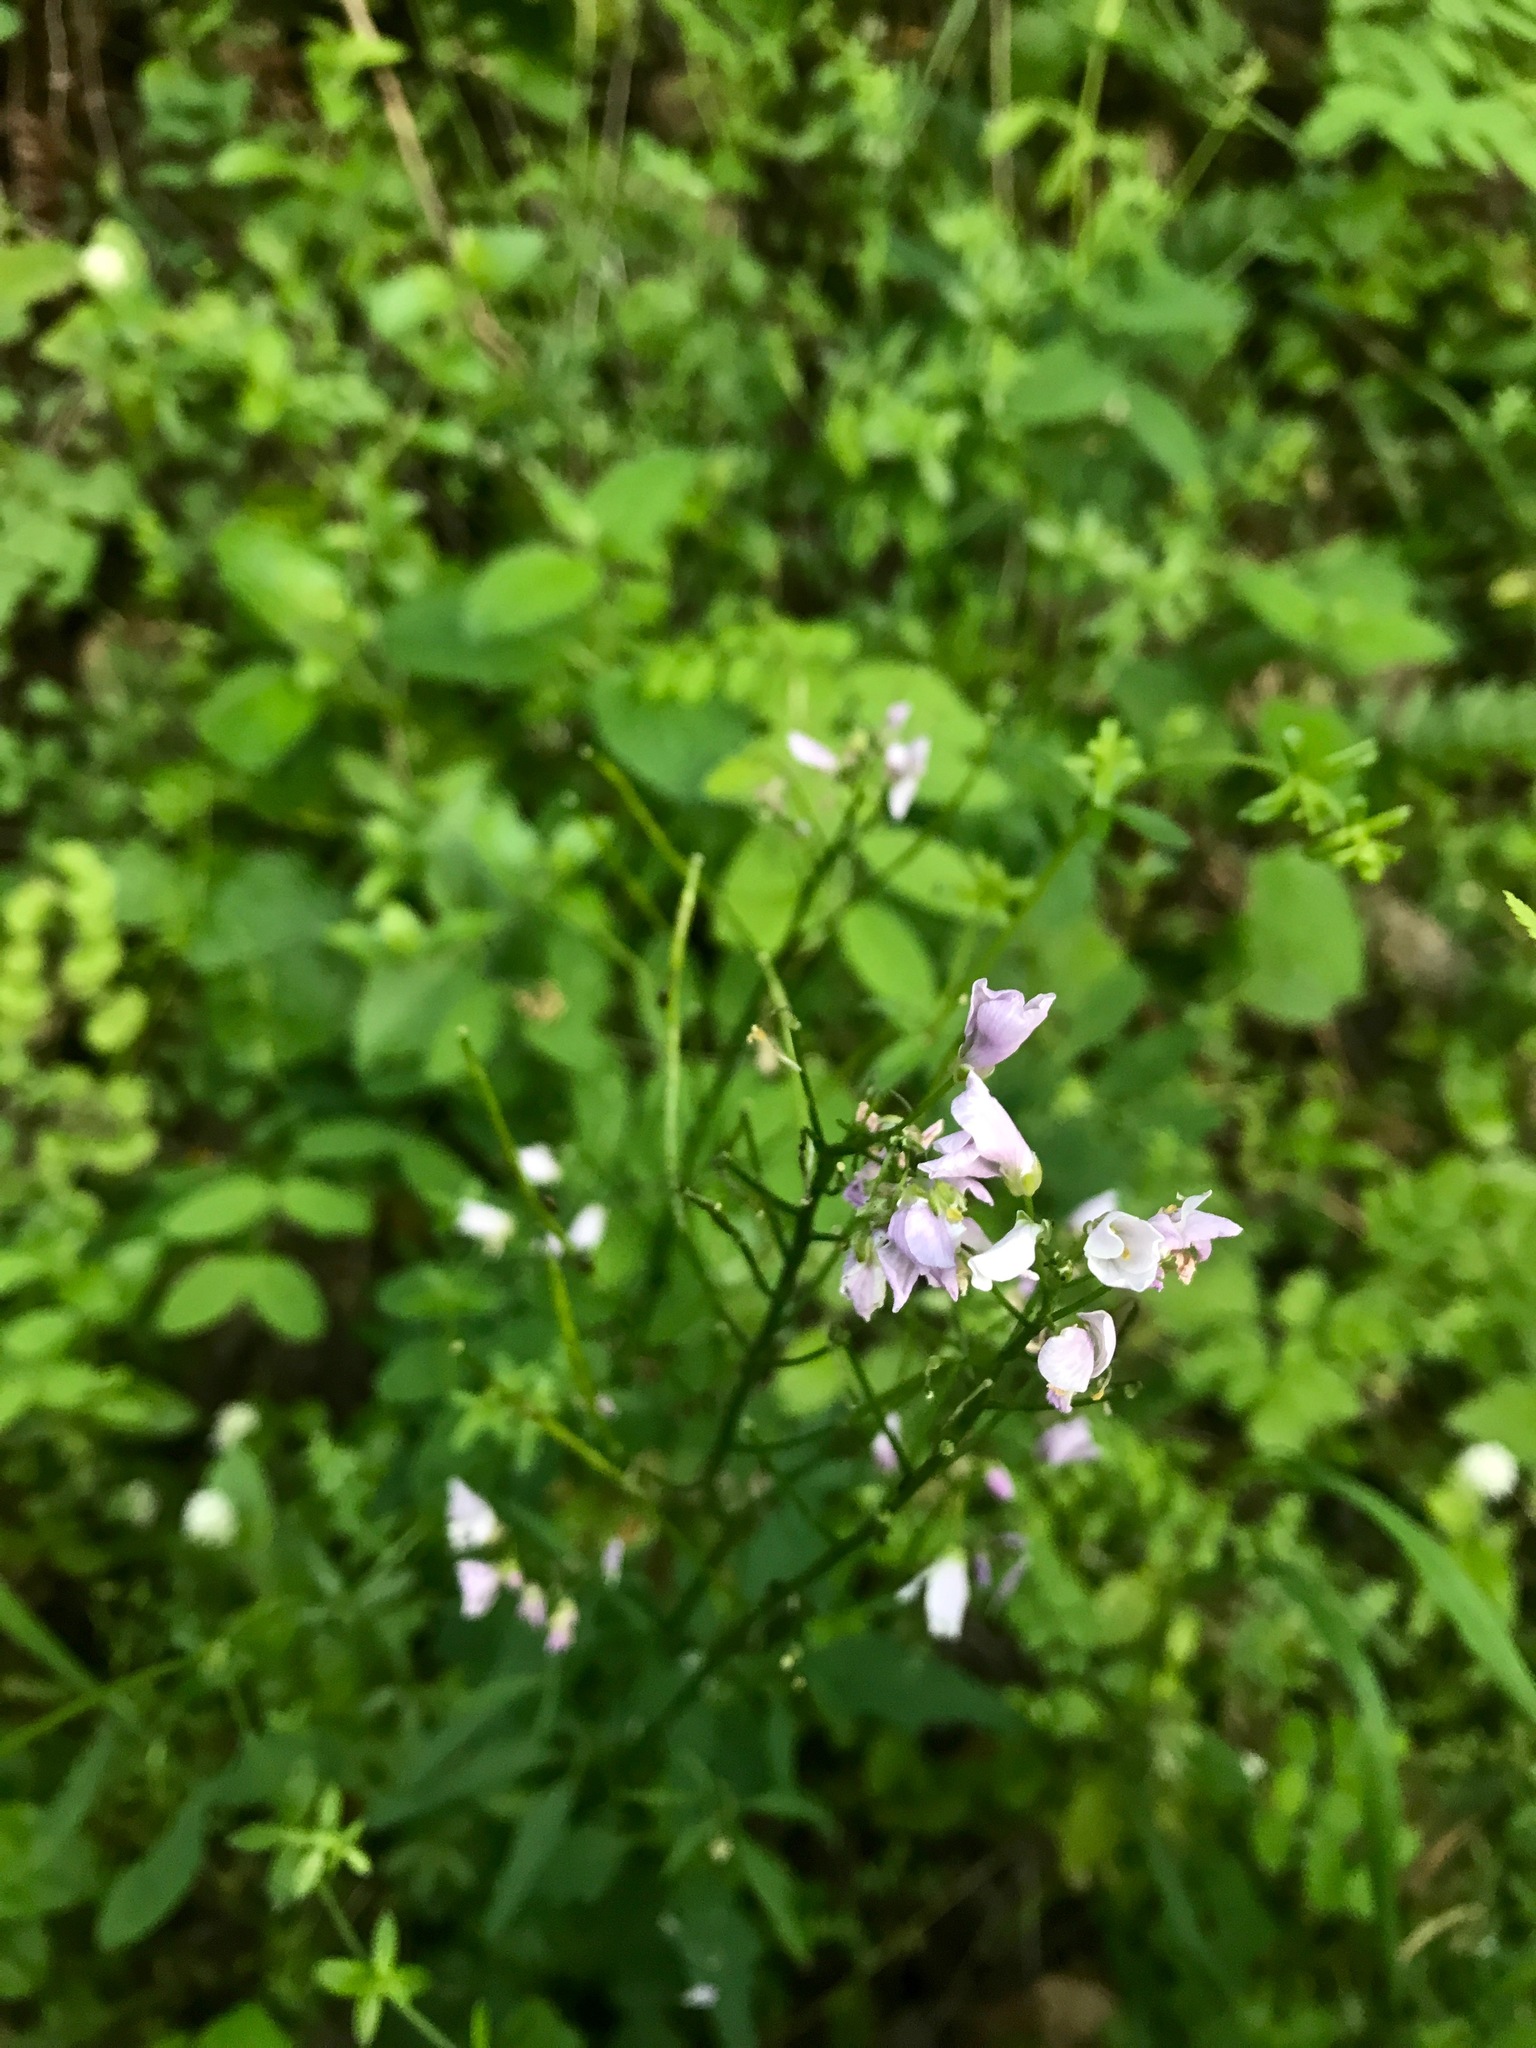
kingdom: Plantae
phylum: Tracheophyta
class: Magnoliopsida
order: Brassicales
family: Brassicaceae
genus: Cardamine
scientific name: Cardamine californica
